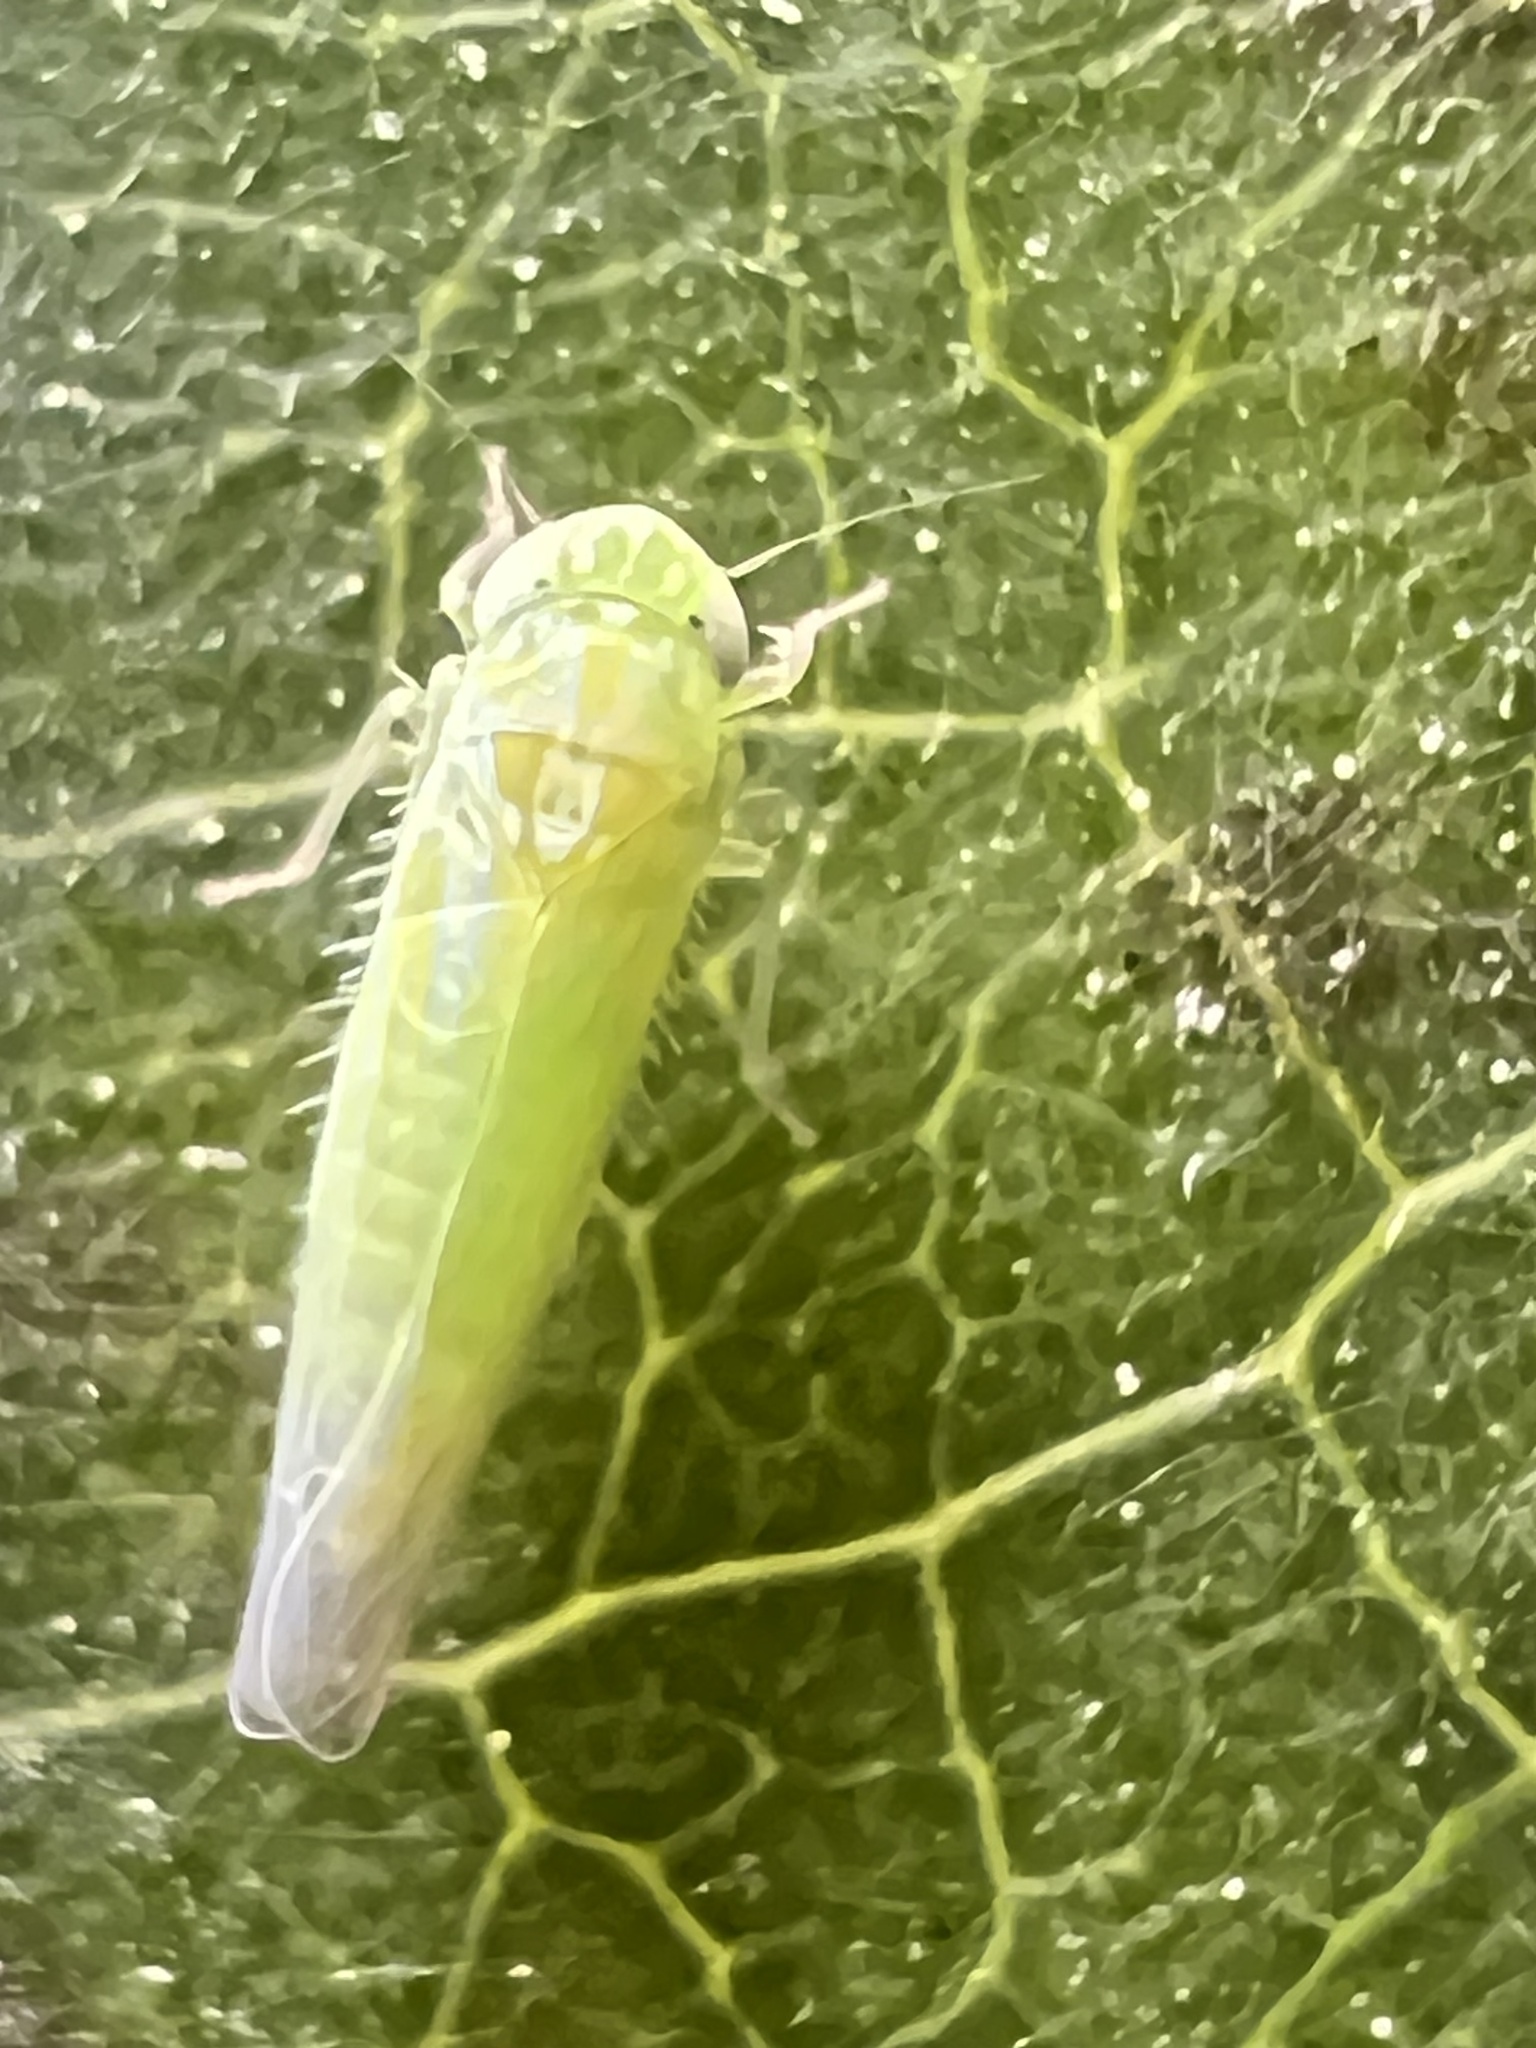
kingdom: Animalia
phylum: Arthropoda
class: Insecta
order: Hemiptera
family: Cicadellidae
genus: Empoasca
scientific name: Empoasca fabae
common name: Potato leafhopper
